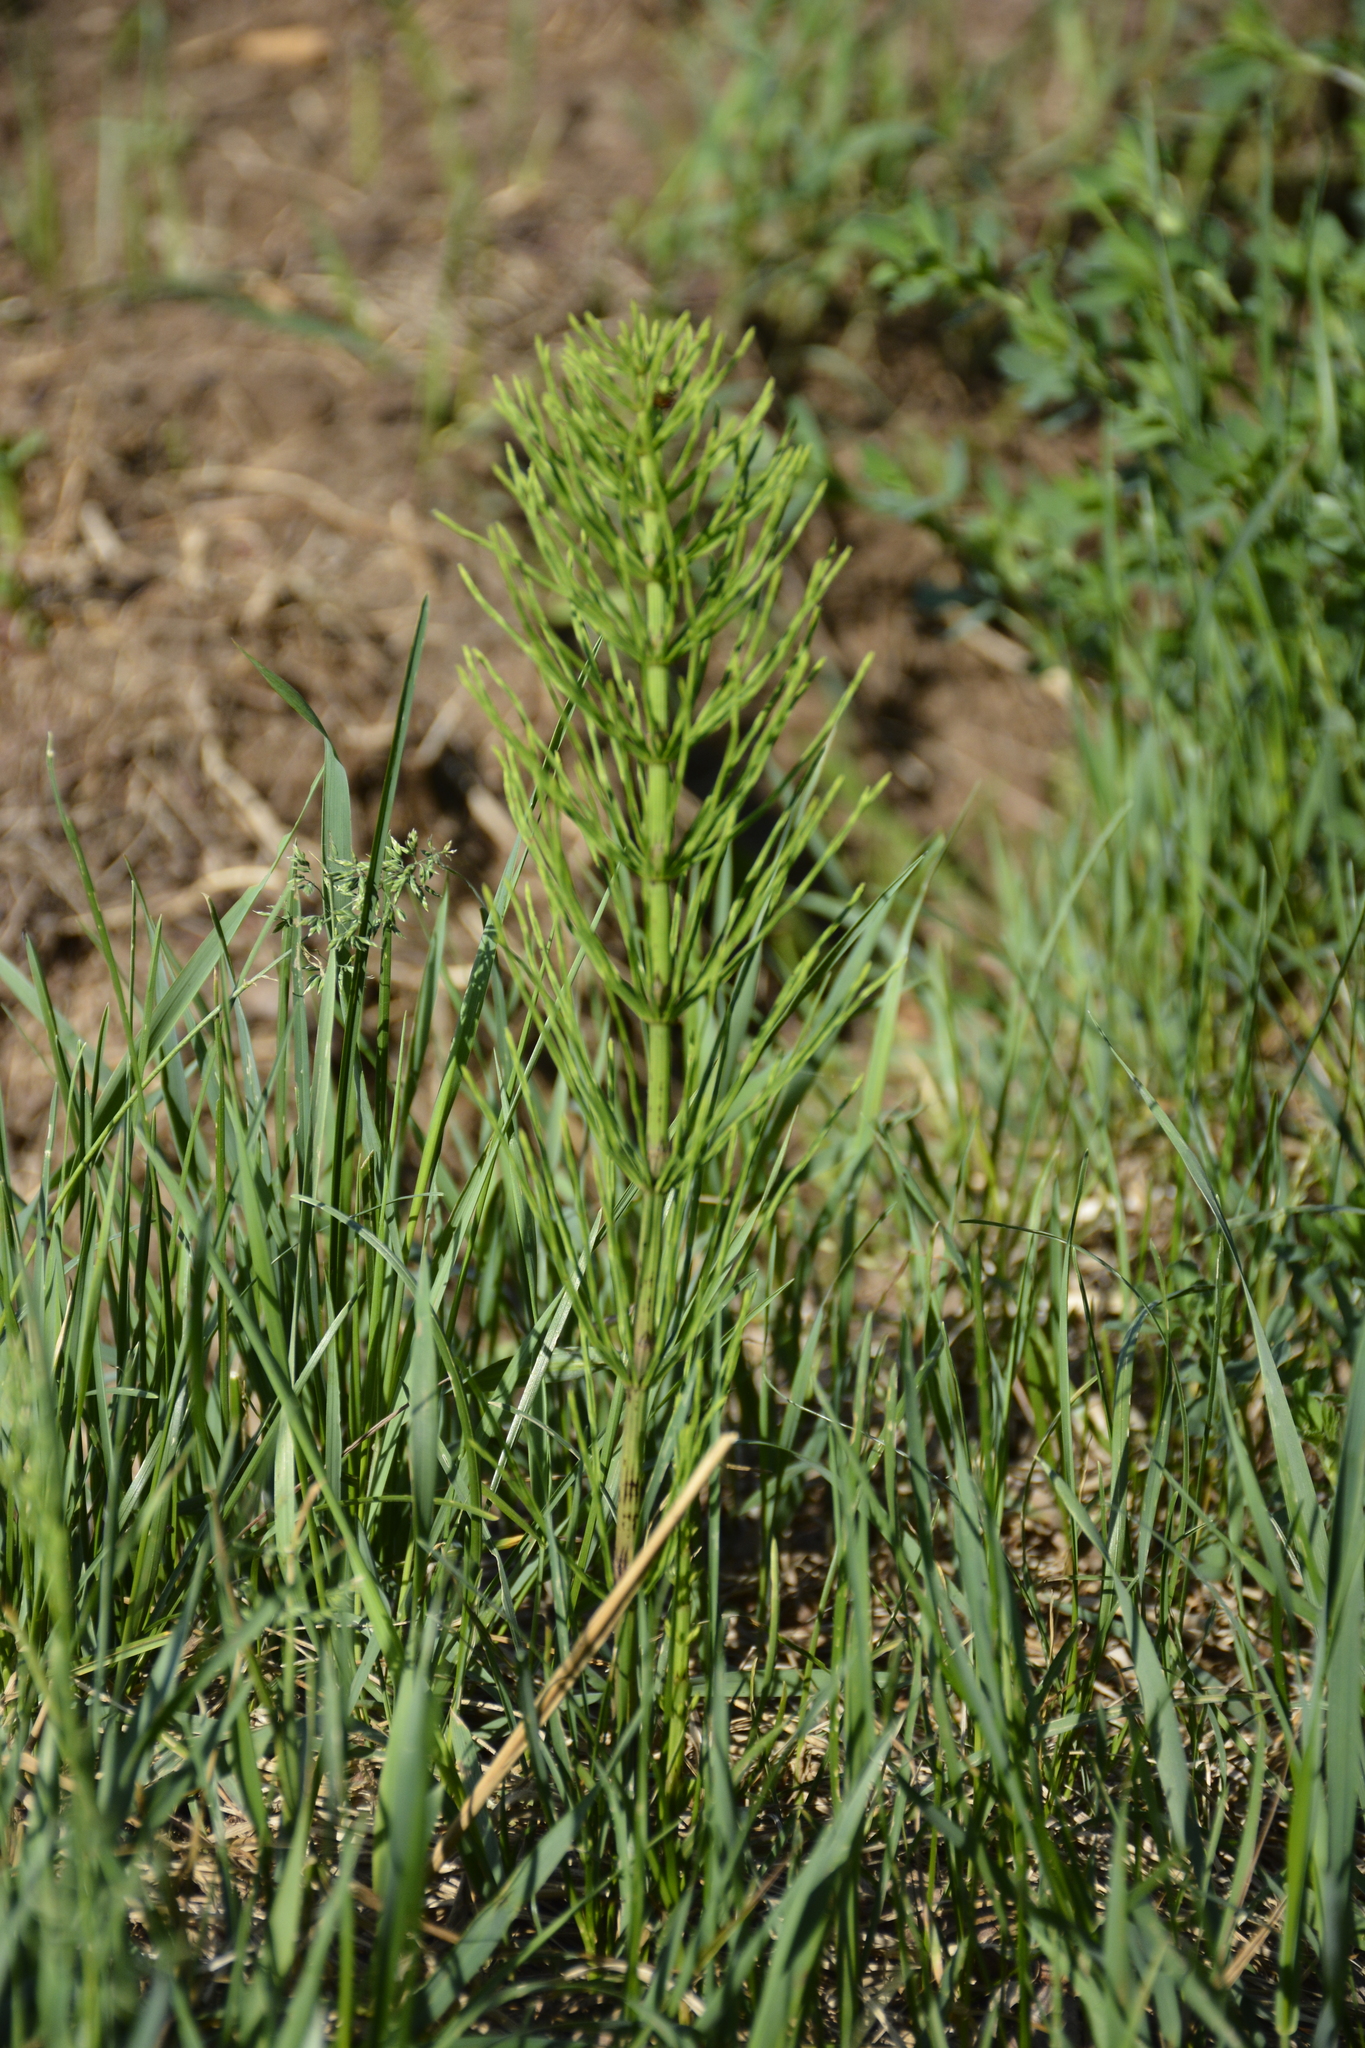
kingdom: Plantae
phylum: Tracheophyta
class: Polypodiopsida
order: Equisetales
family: Equisetaceae
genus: Equisetum
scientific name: Equisetum arvense
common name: Field horsetail
